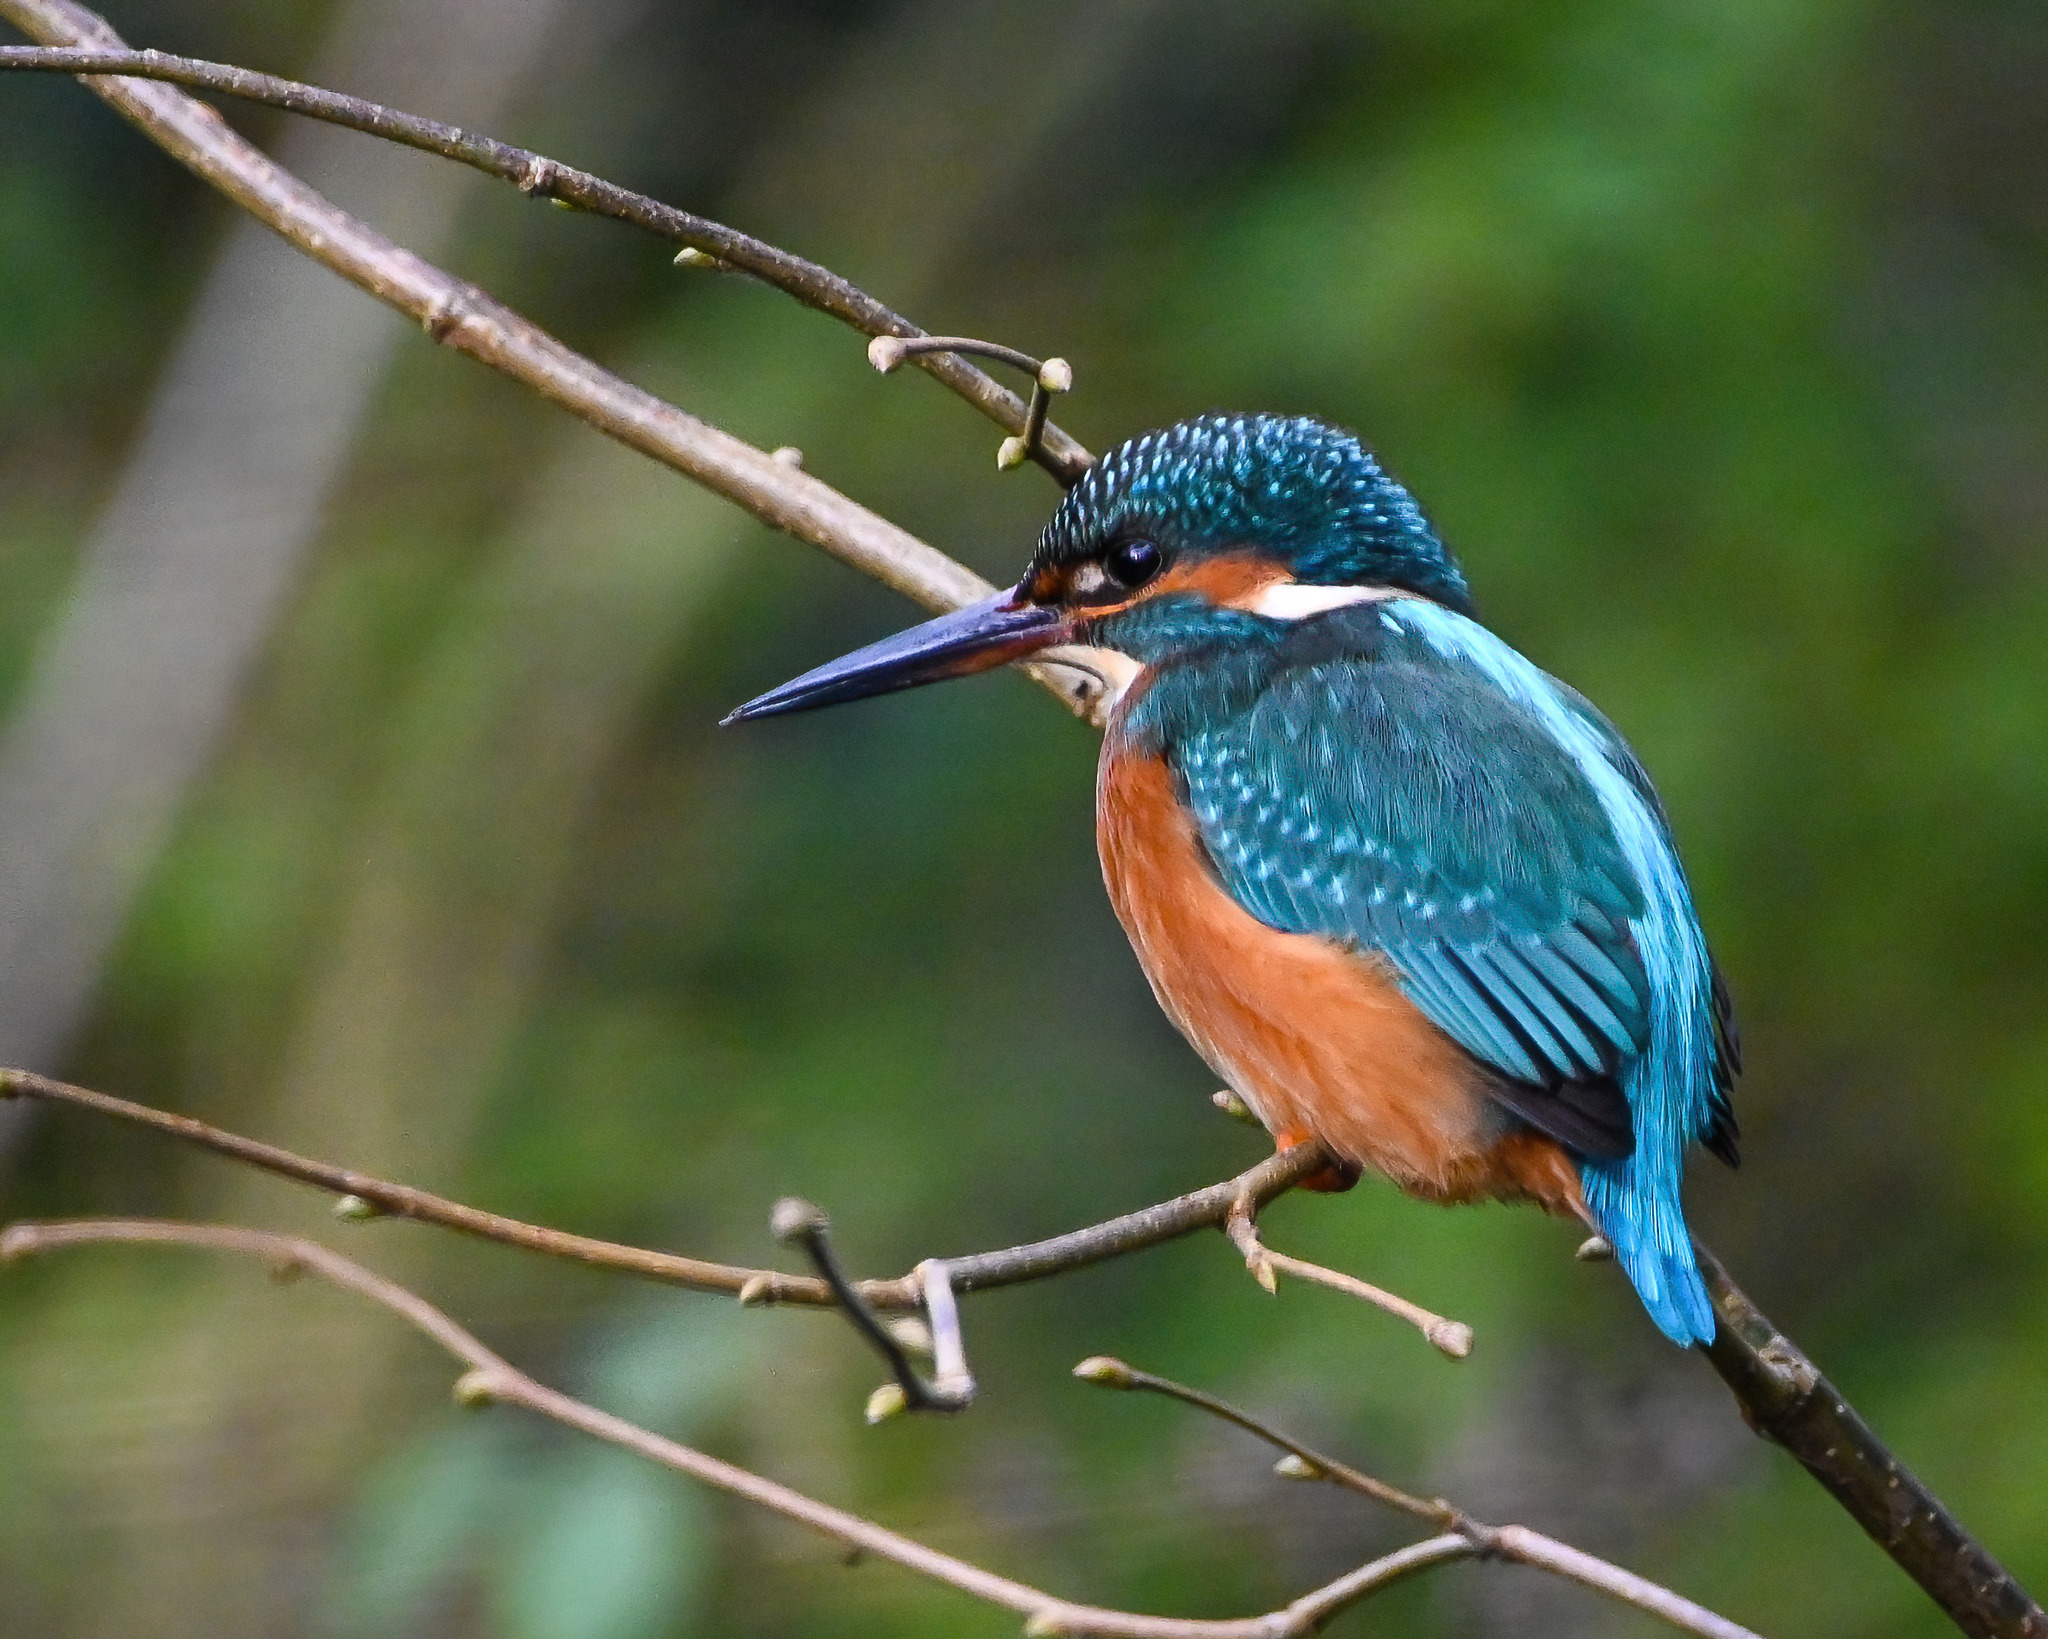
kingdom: Animalia
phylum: Chordata
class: Aves
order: Coraciiformes
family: Alcedinidae
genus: Alcedo
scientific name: Alcedo atthis
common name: Common kingfisher
